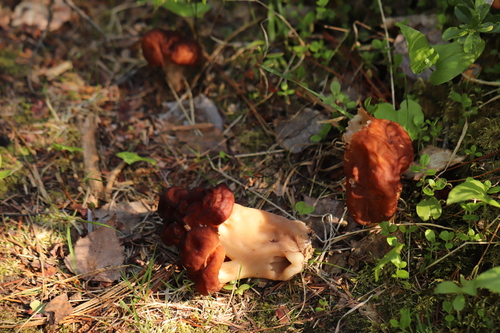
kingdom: Fungi
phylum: Ascomycota
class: Pezizomycetes
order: Pezizales
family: Discinaceae
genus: Gyromitra
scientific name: Gyromitra esculenta
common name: False morel
